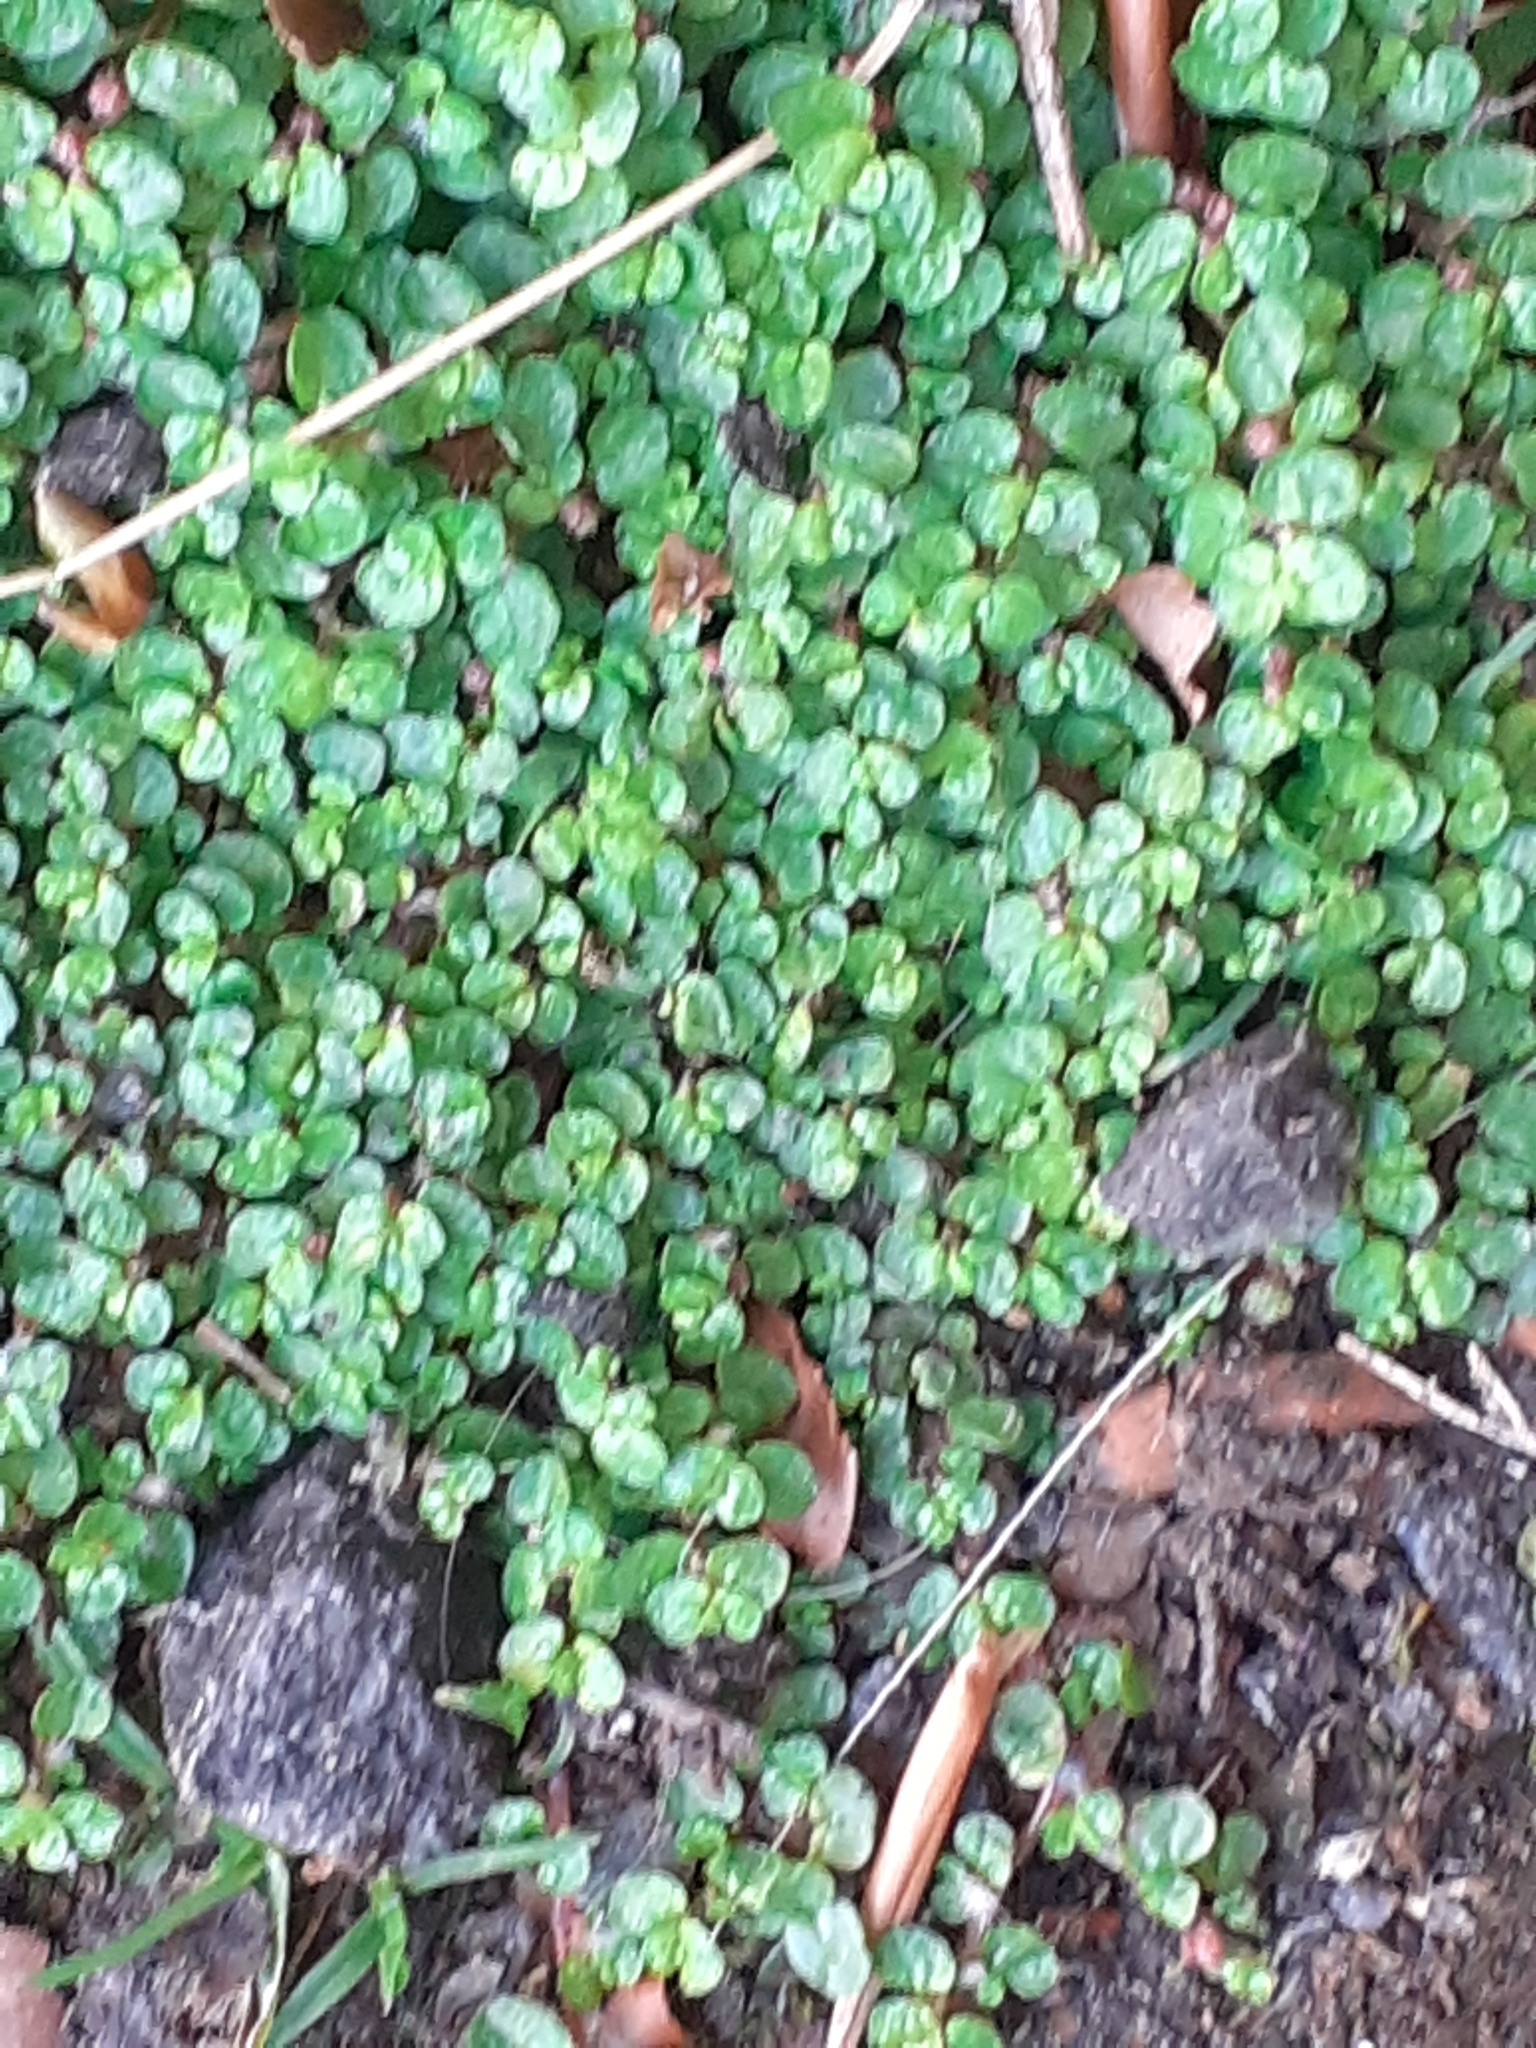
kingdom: Plantae
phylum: Tracheophyta
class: Magnoliopsida
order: Rosales
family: Urticaceae
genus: Soleirolia
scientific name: Soleirolia soleirolii
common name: Mind-your-own-business
